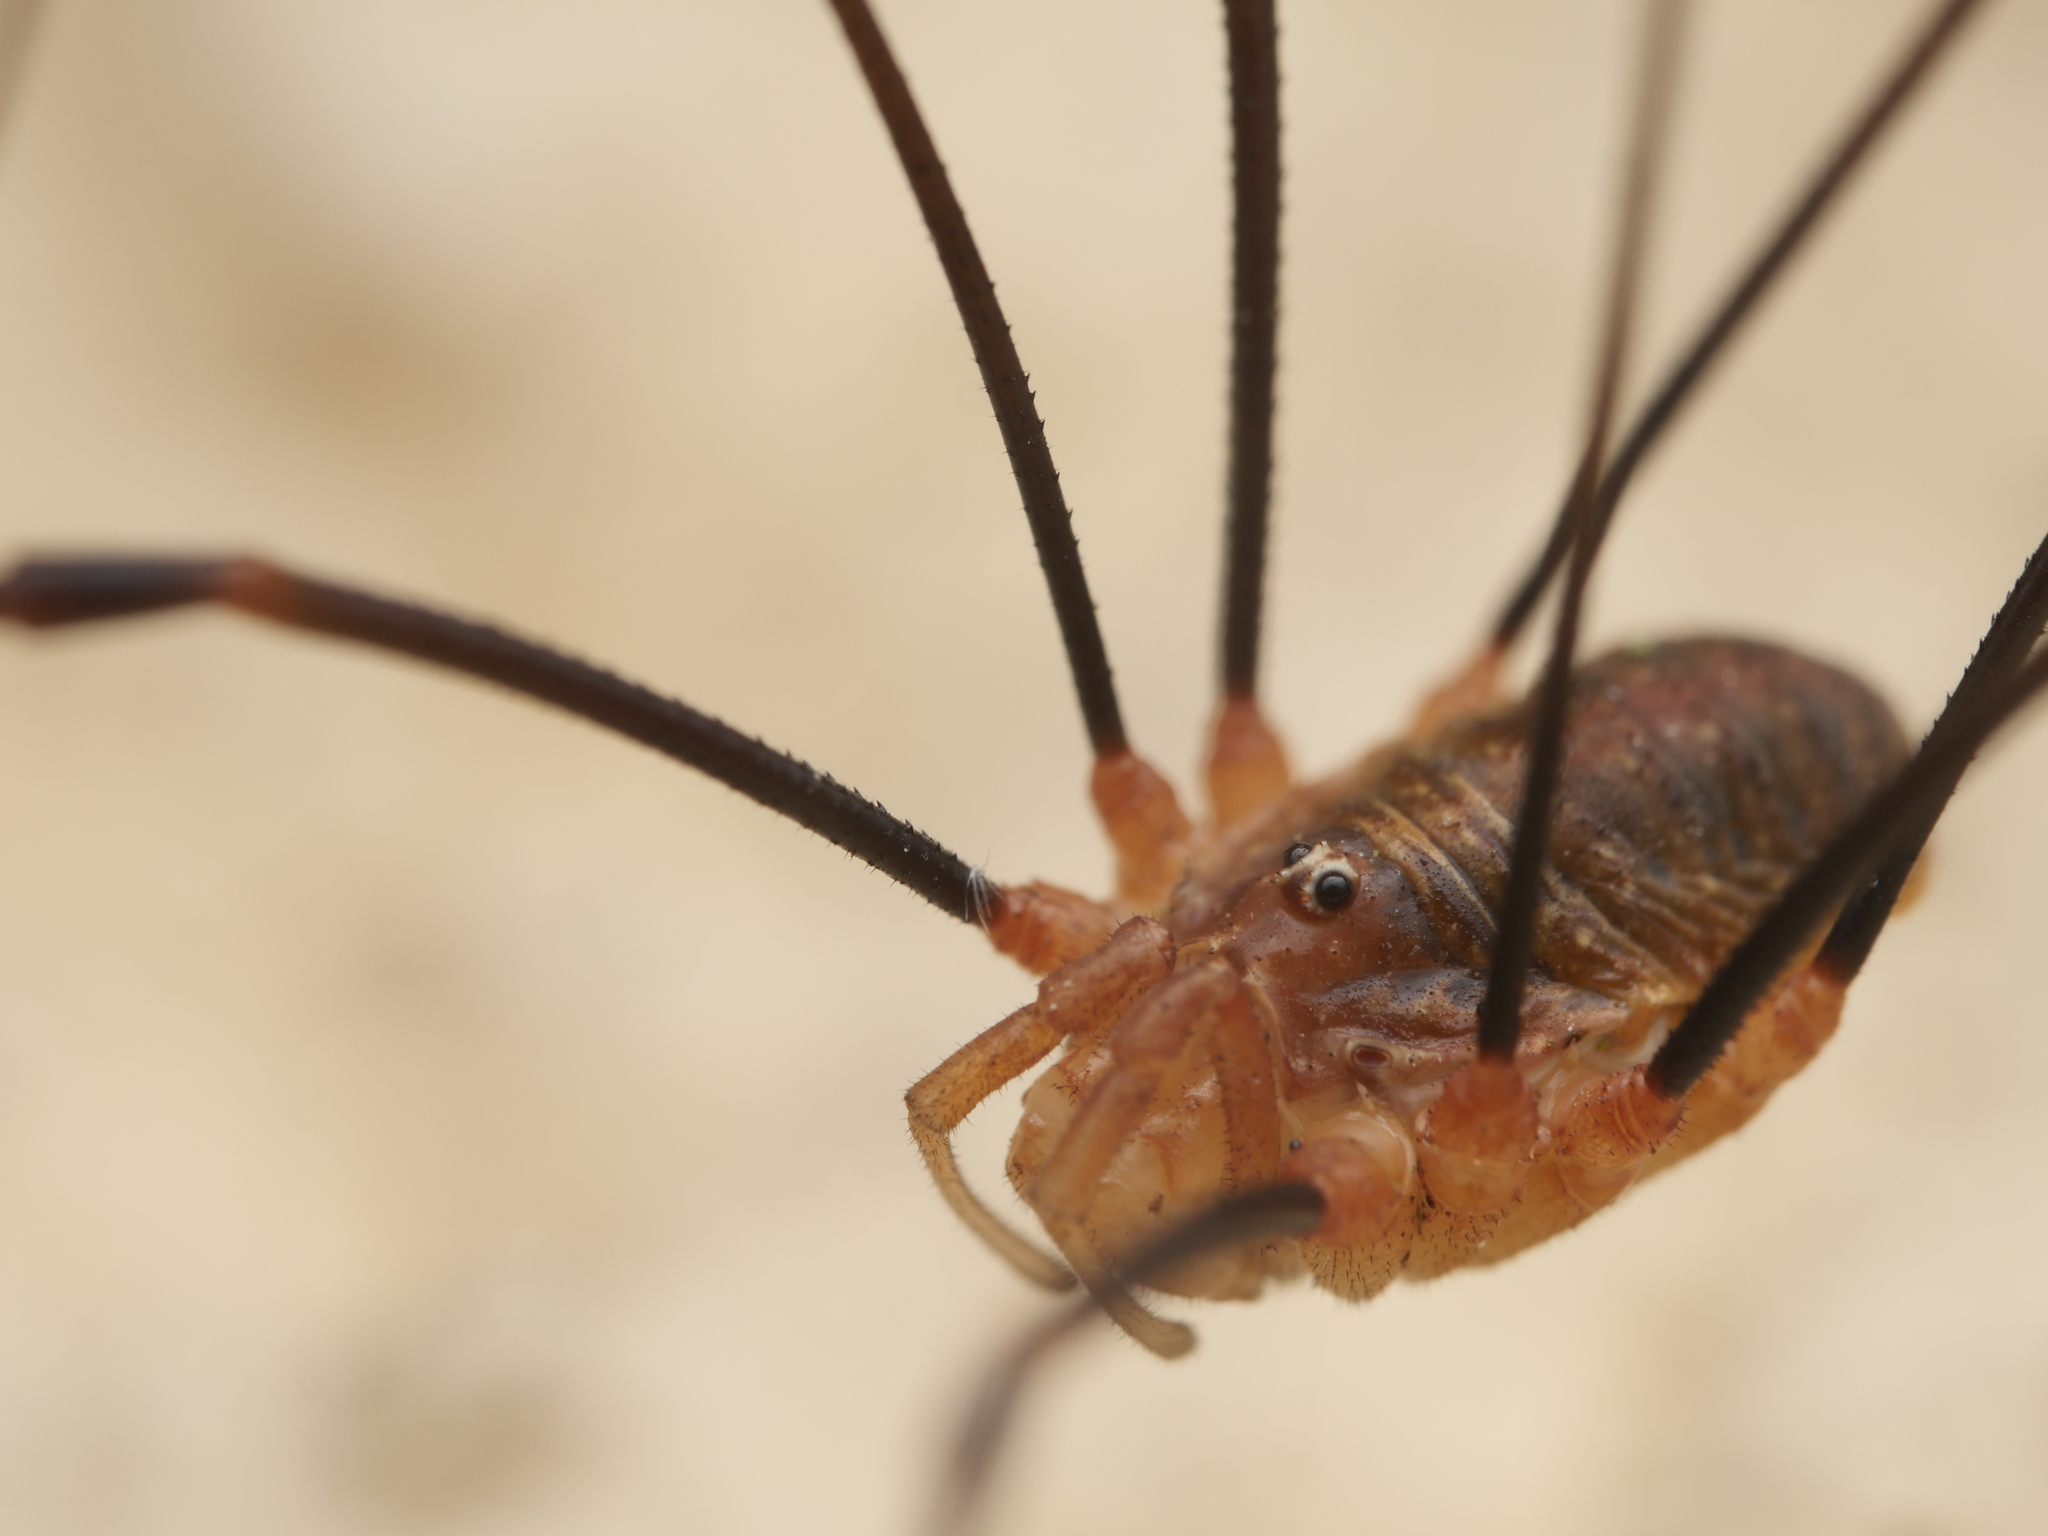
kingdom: Animalia
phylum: Arthropoda
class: Arachnida
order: Opiliones
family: Phalangiidae
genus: Opilio
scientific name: Opilio canestrinii
